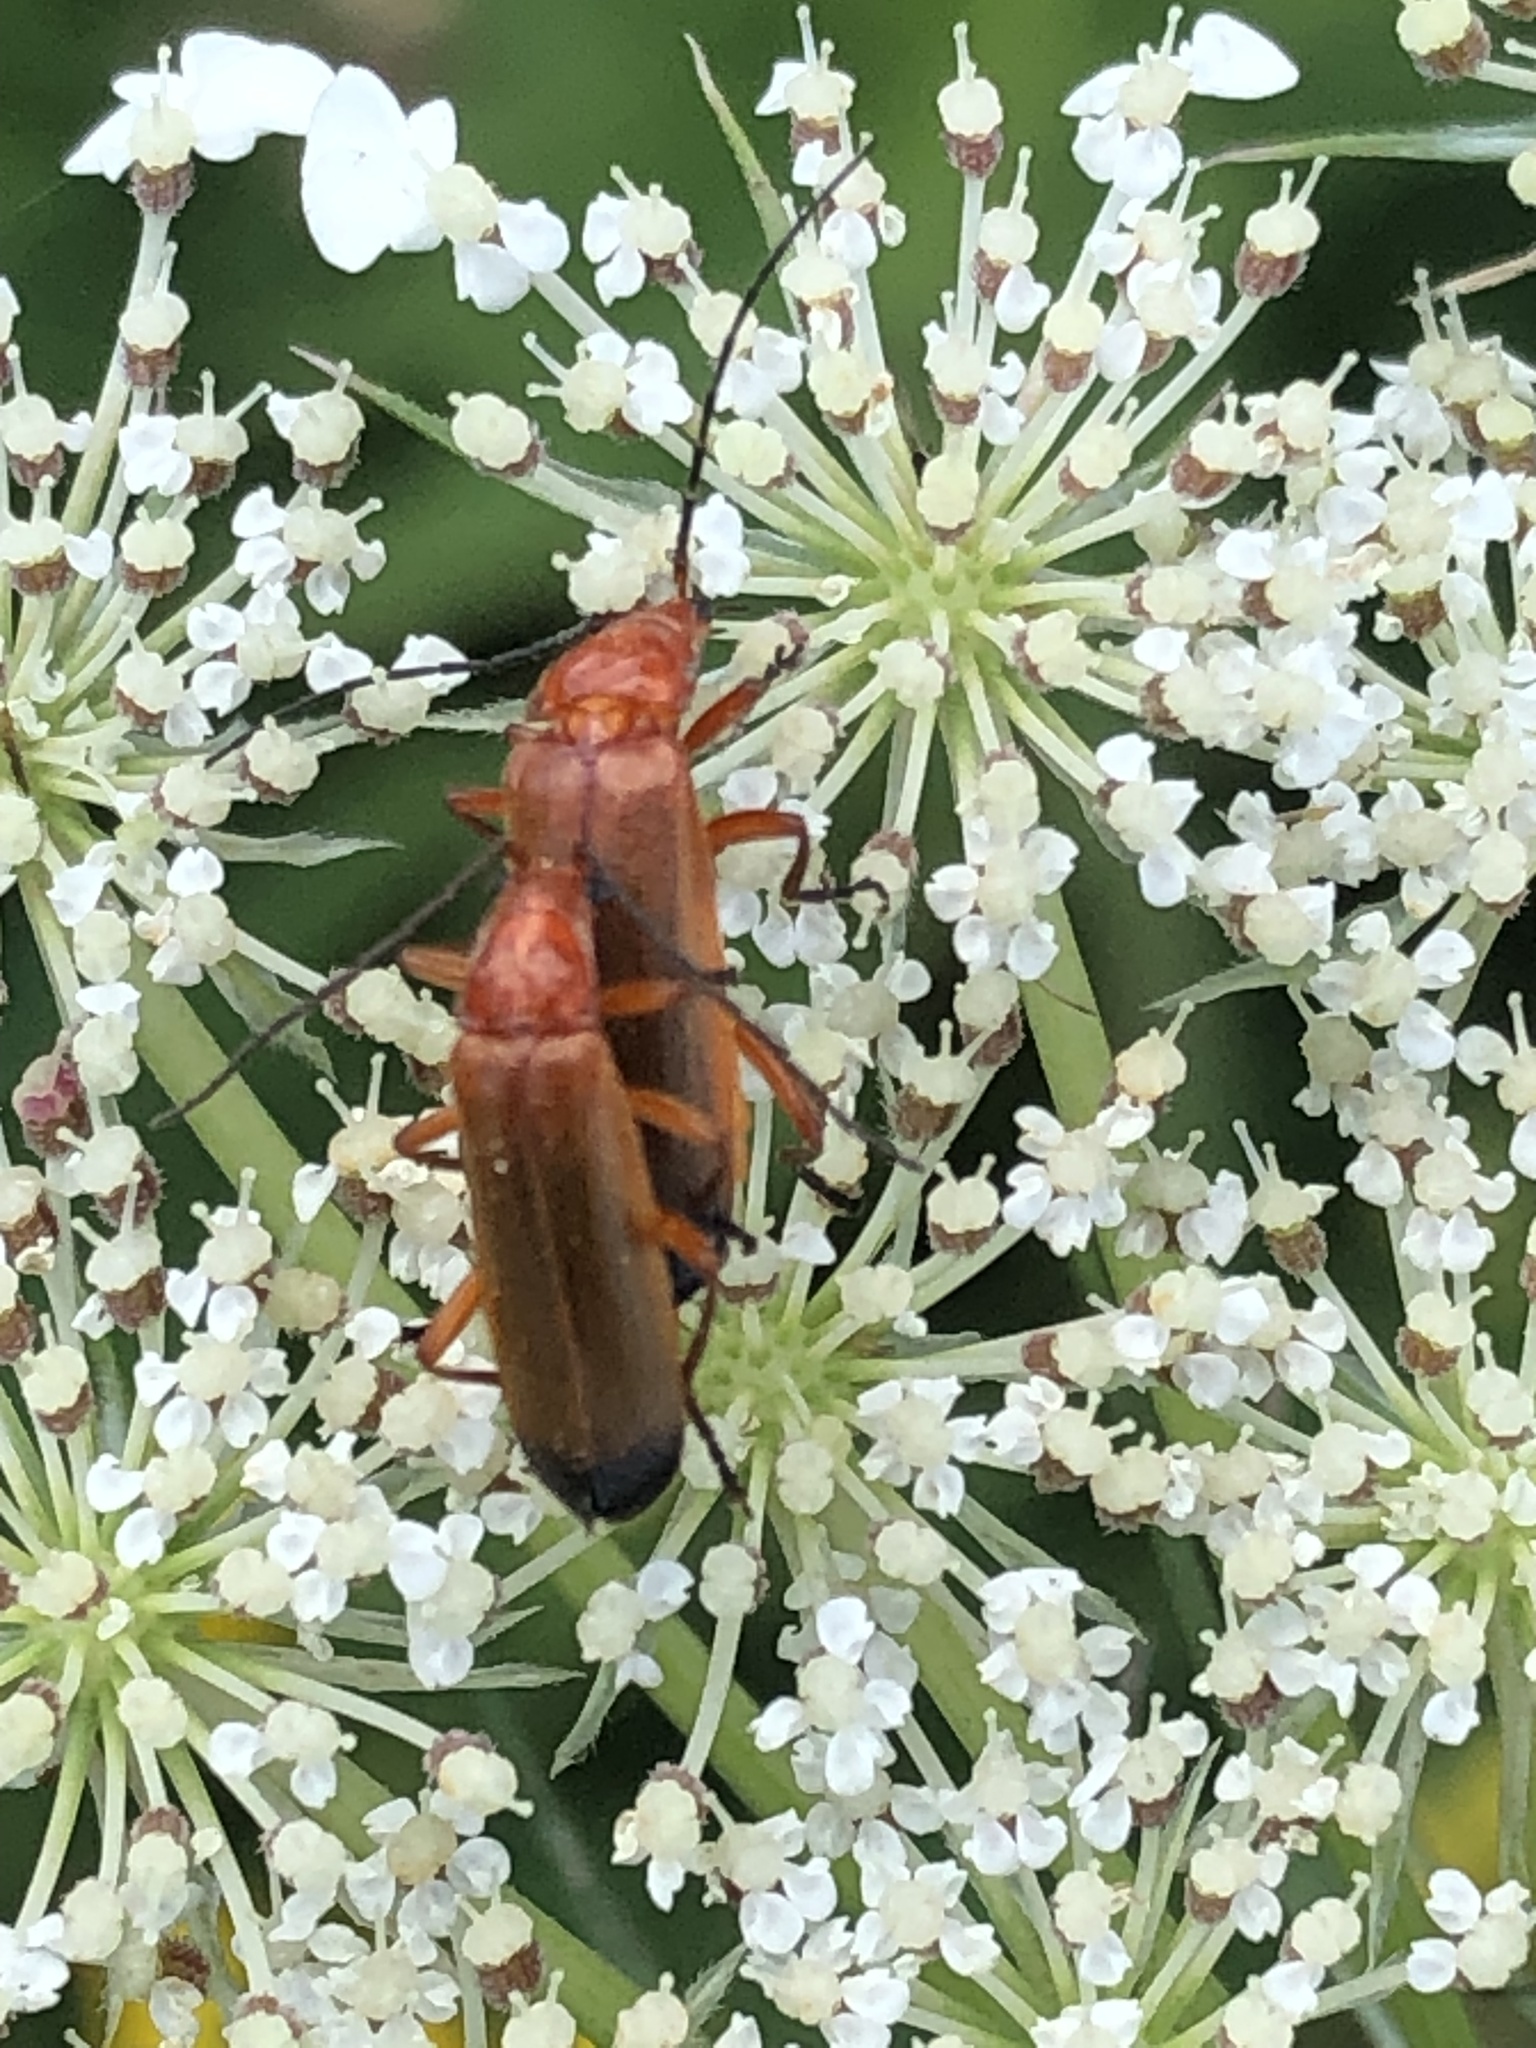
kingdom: Animalia
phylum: Arthropoda
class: Insecta
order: Coleoptera
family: Cantharidae
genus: Rhagonycha
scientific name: Rhagonycha fulva
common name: Common red soldier beetle
